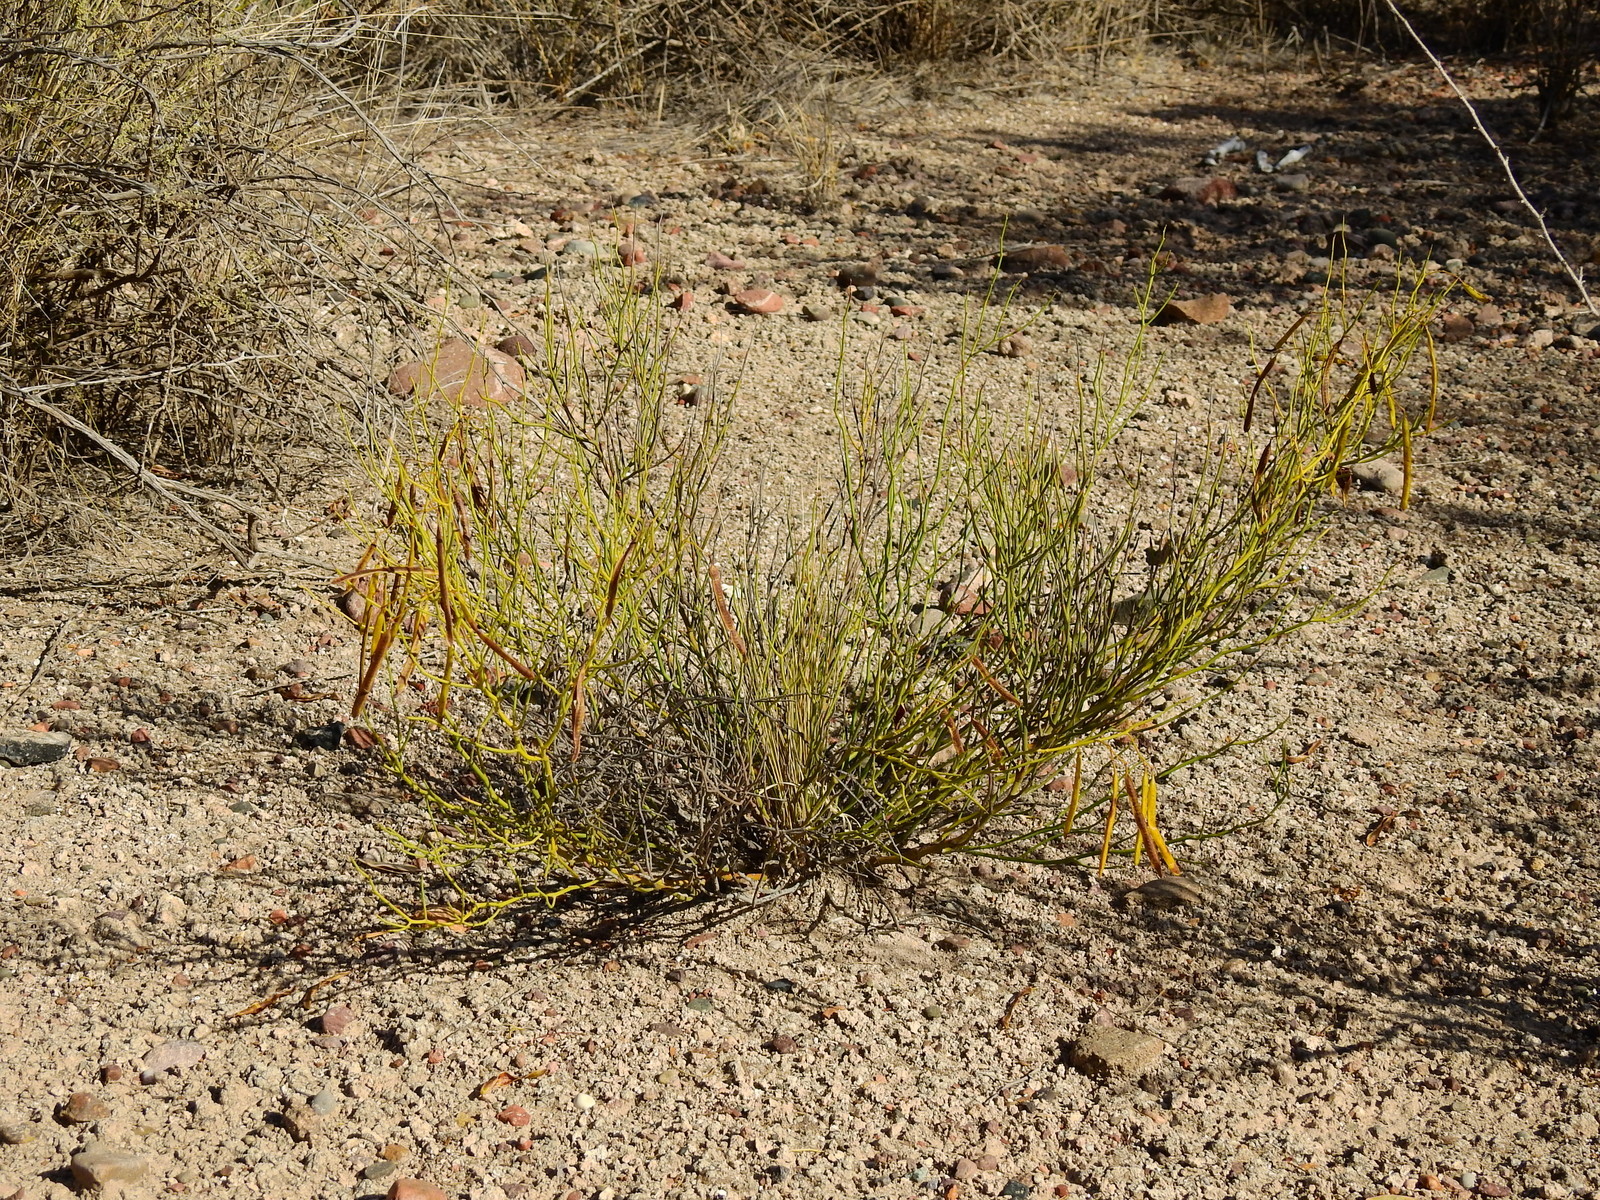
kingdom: Plantae
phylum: Tracheophyta
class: Magnoliopsida
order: Fabales
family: Fabaceae
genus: Senna
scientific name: Senna aphylla
